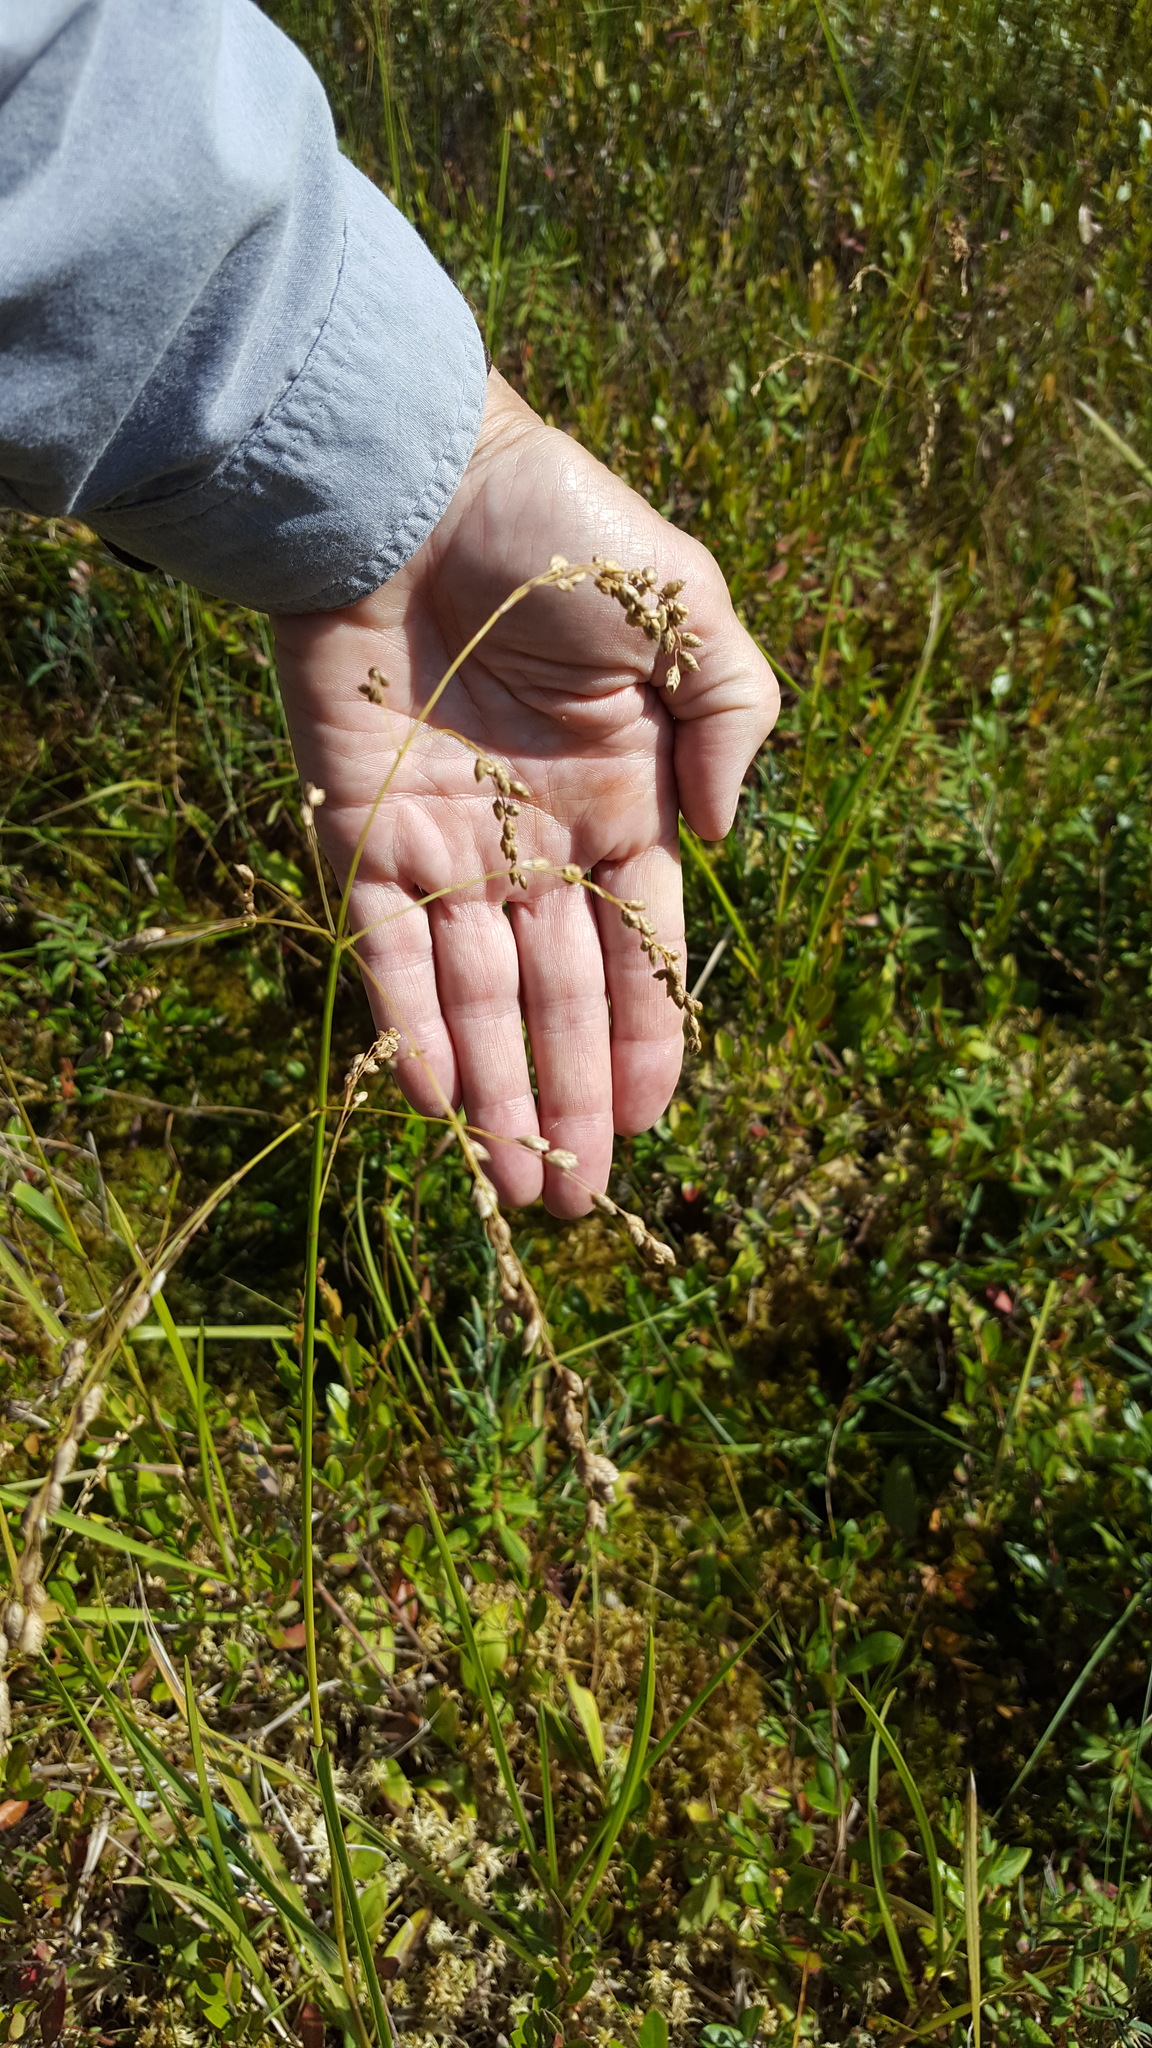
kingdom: Plantae
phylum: Tracheophyta
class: Liliopsida
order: Poales
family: Poaceae
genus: Glyceria
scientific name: Glyceria canadensis
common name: Canada mannagrass
